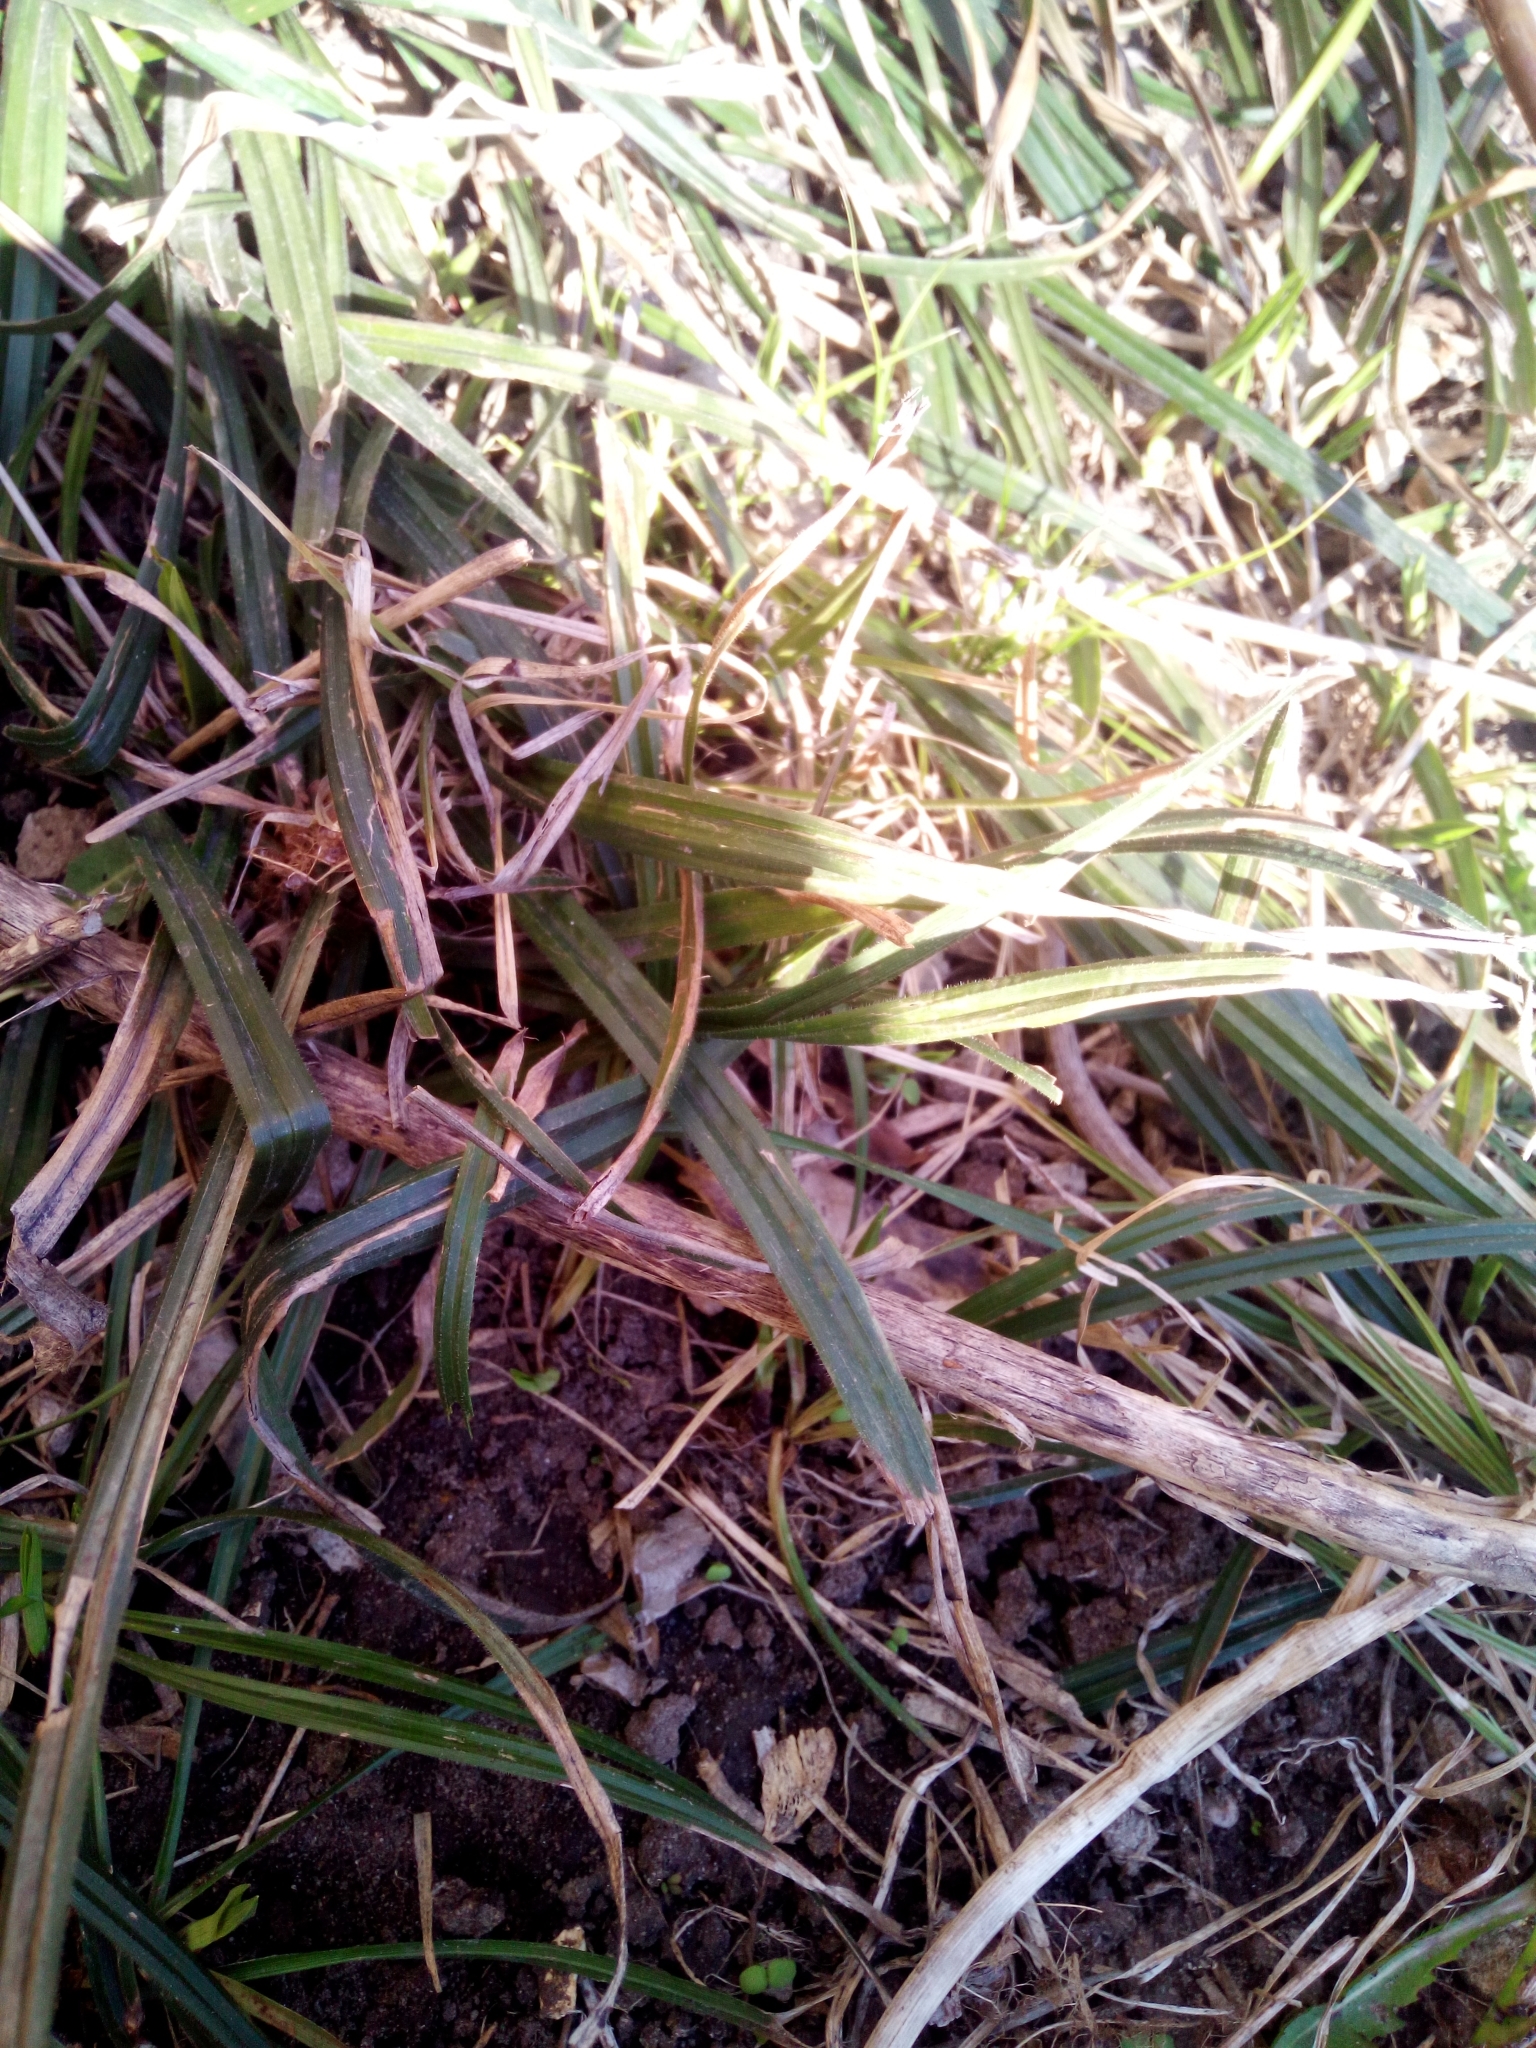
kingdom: Plantae
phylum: Tracheophyta
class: Liliopsida
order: Poales
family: Cyperaceae
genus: Carex
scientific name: Carex pilosa
